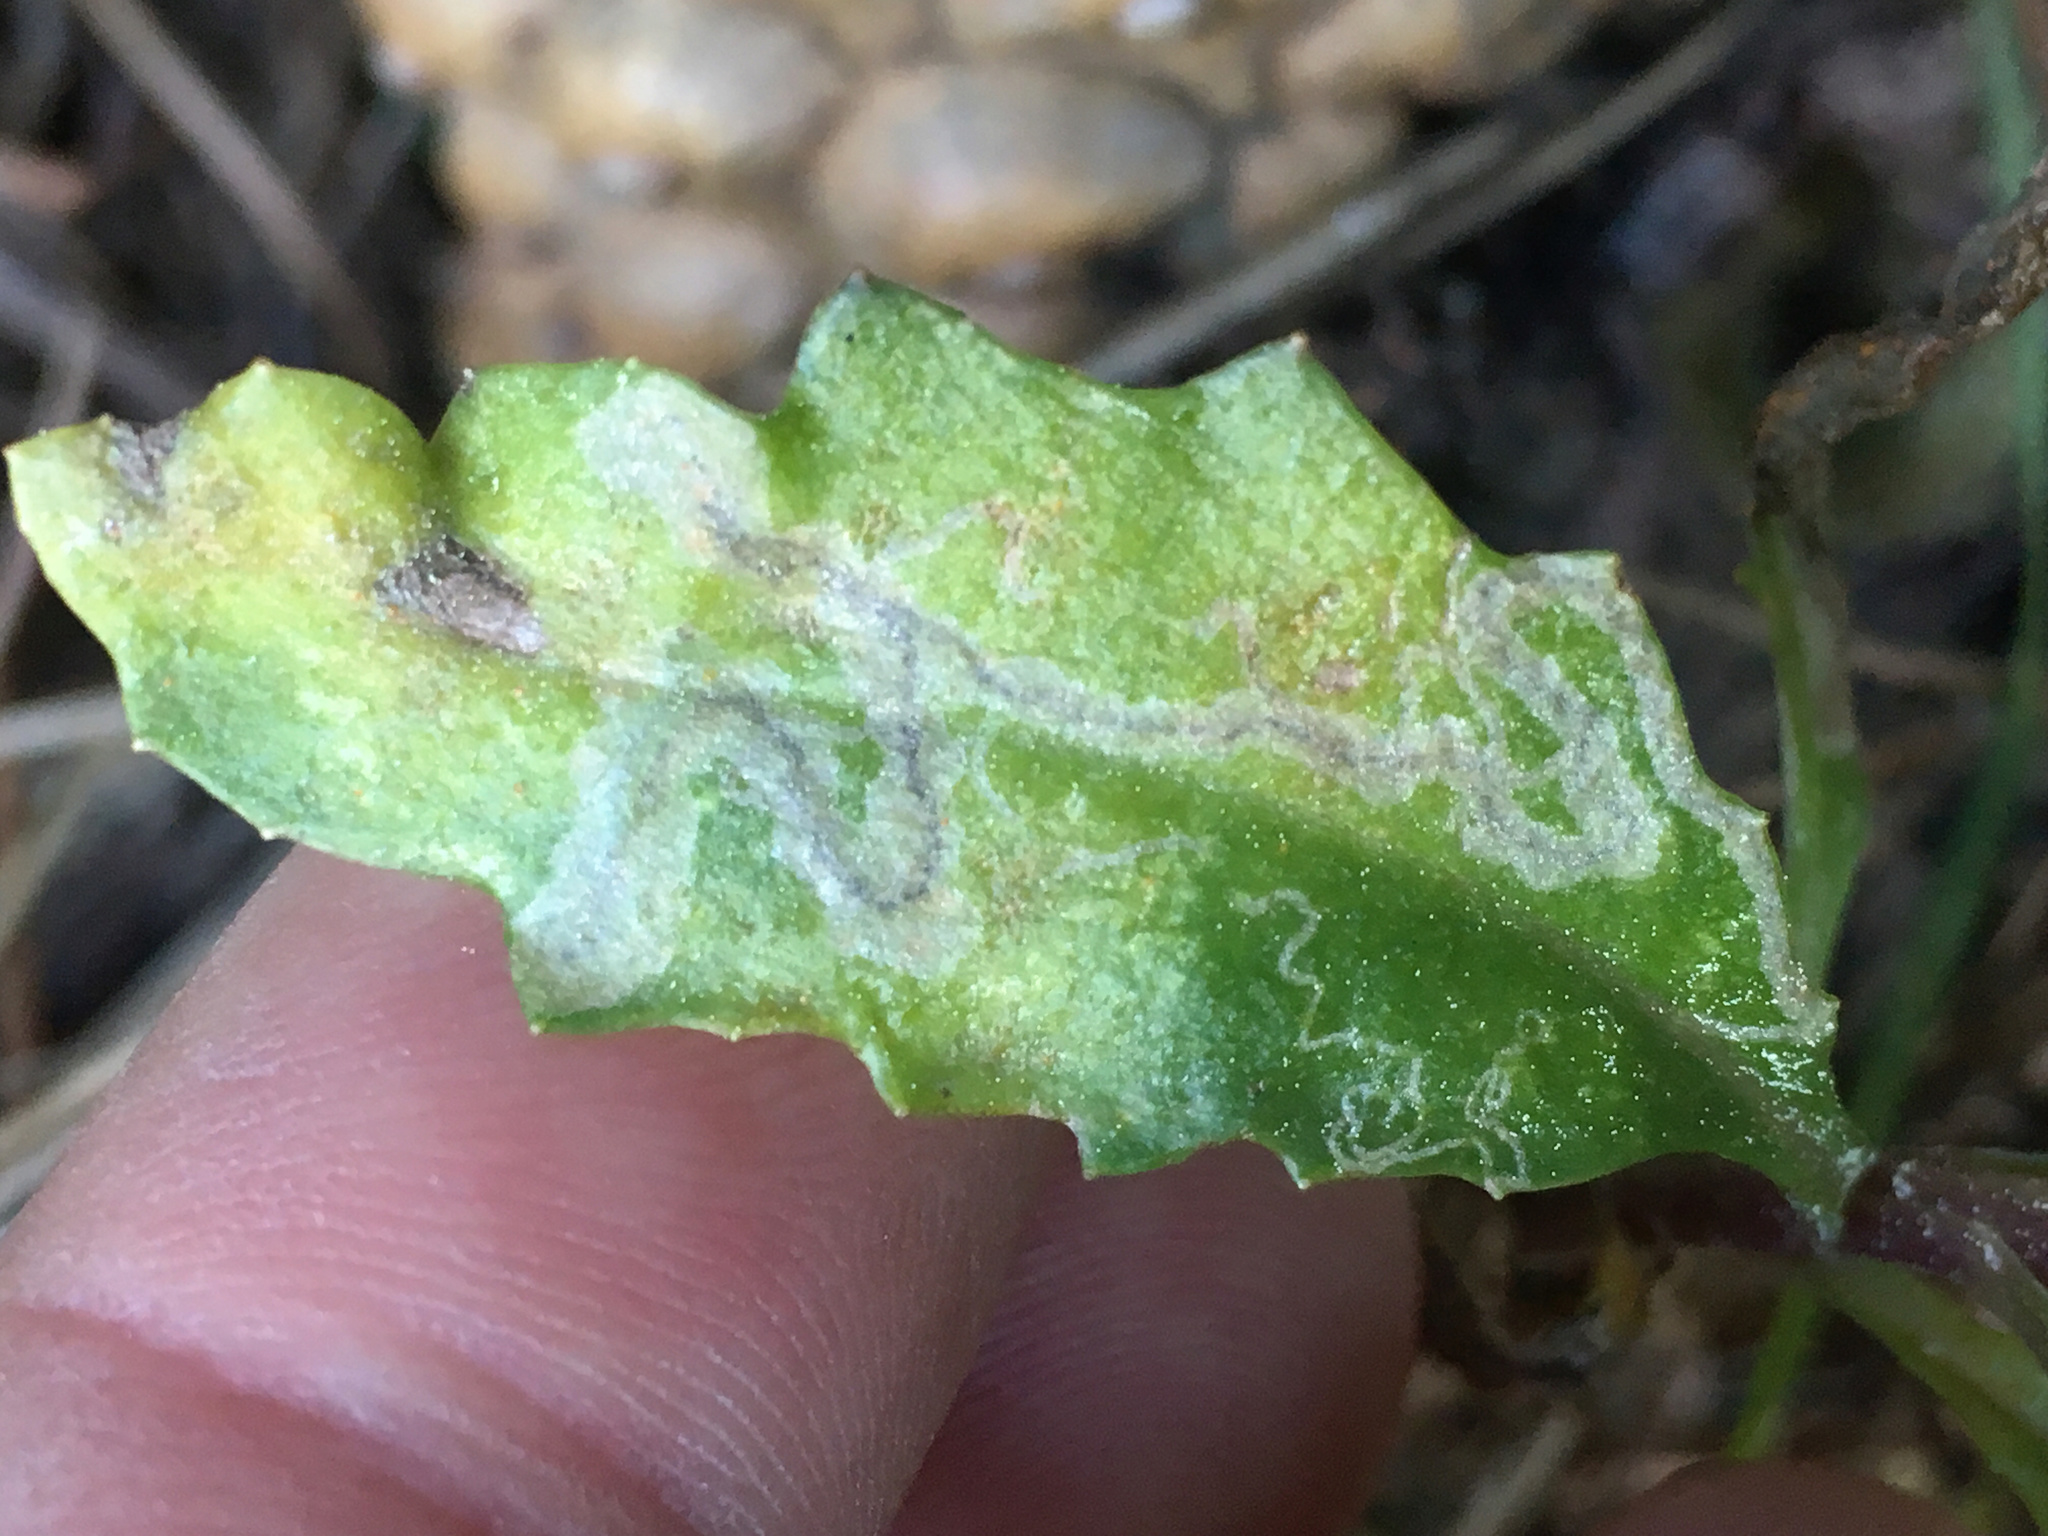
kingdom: Animalia
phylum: Arthropoda
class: Insecta
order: Lepidoptera
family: Nepticulidae
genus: Stigmella
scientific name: Stigmella ogygia
